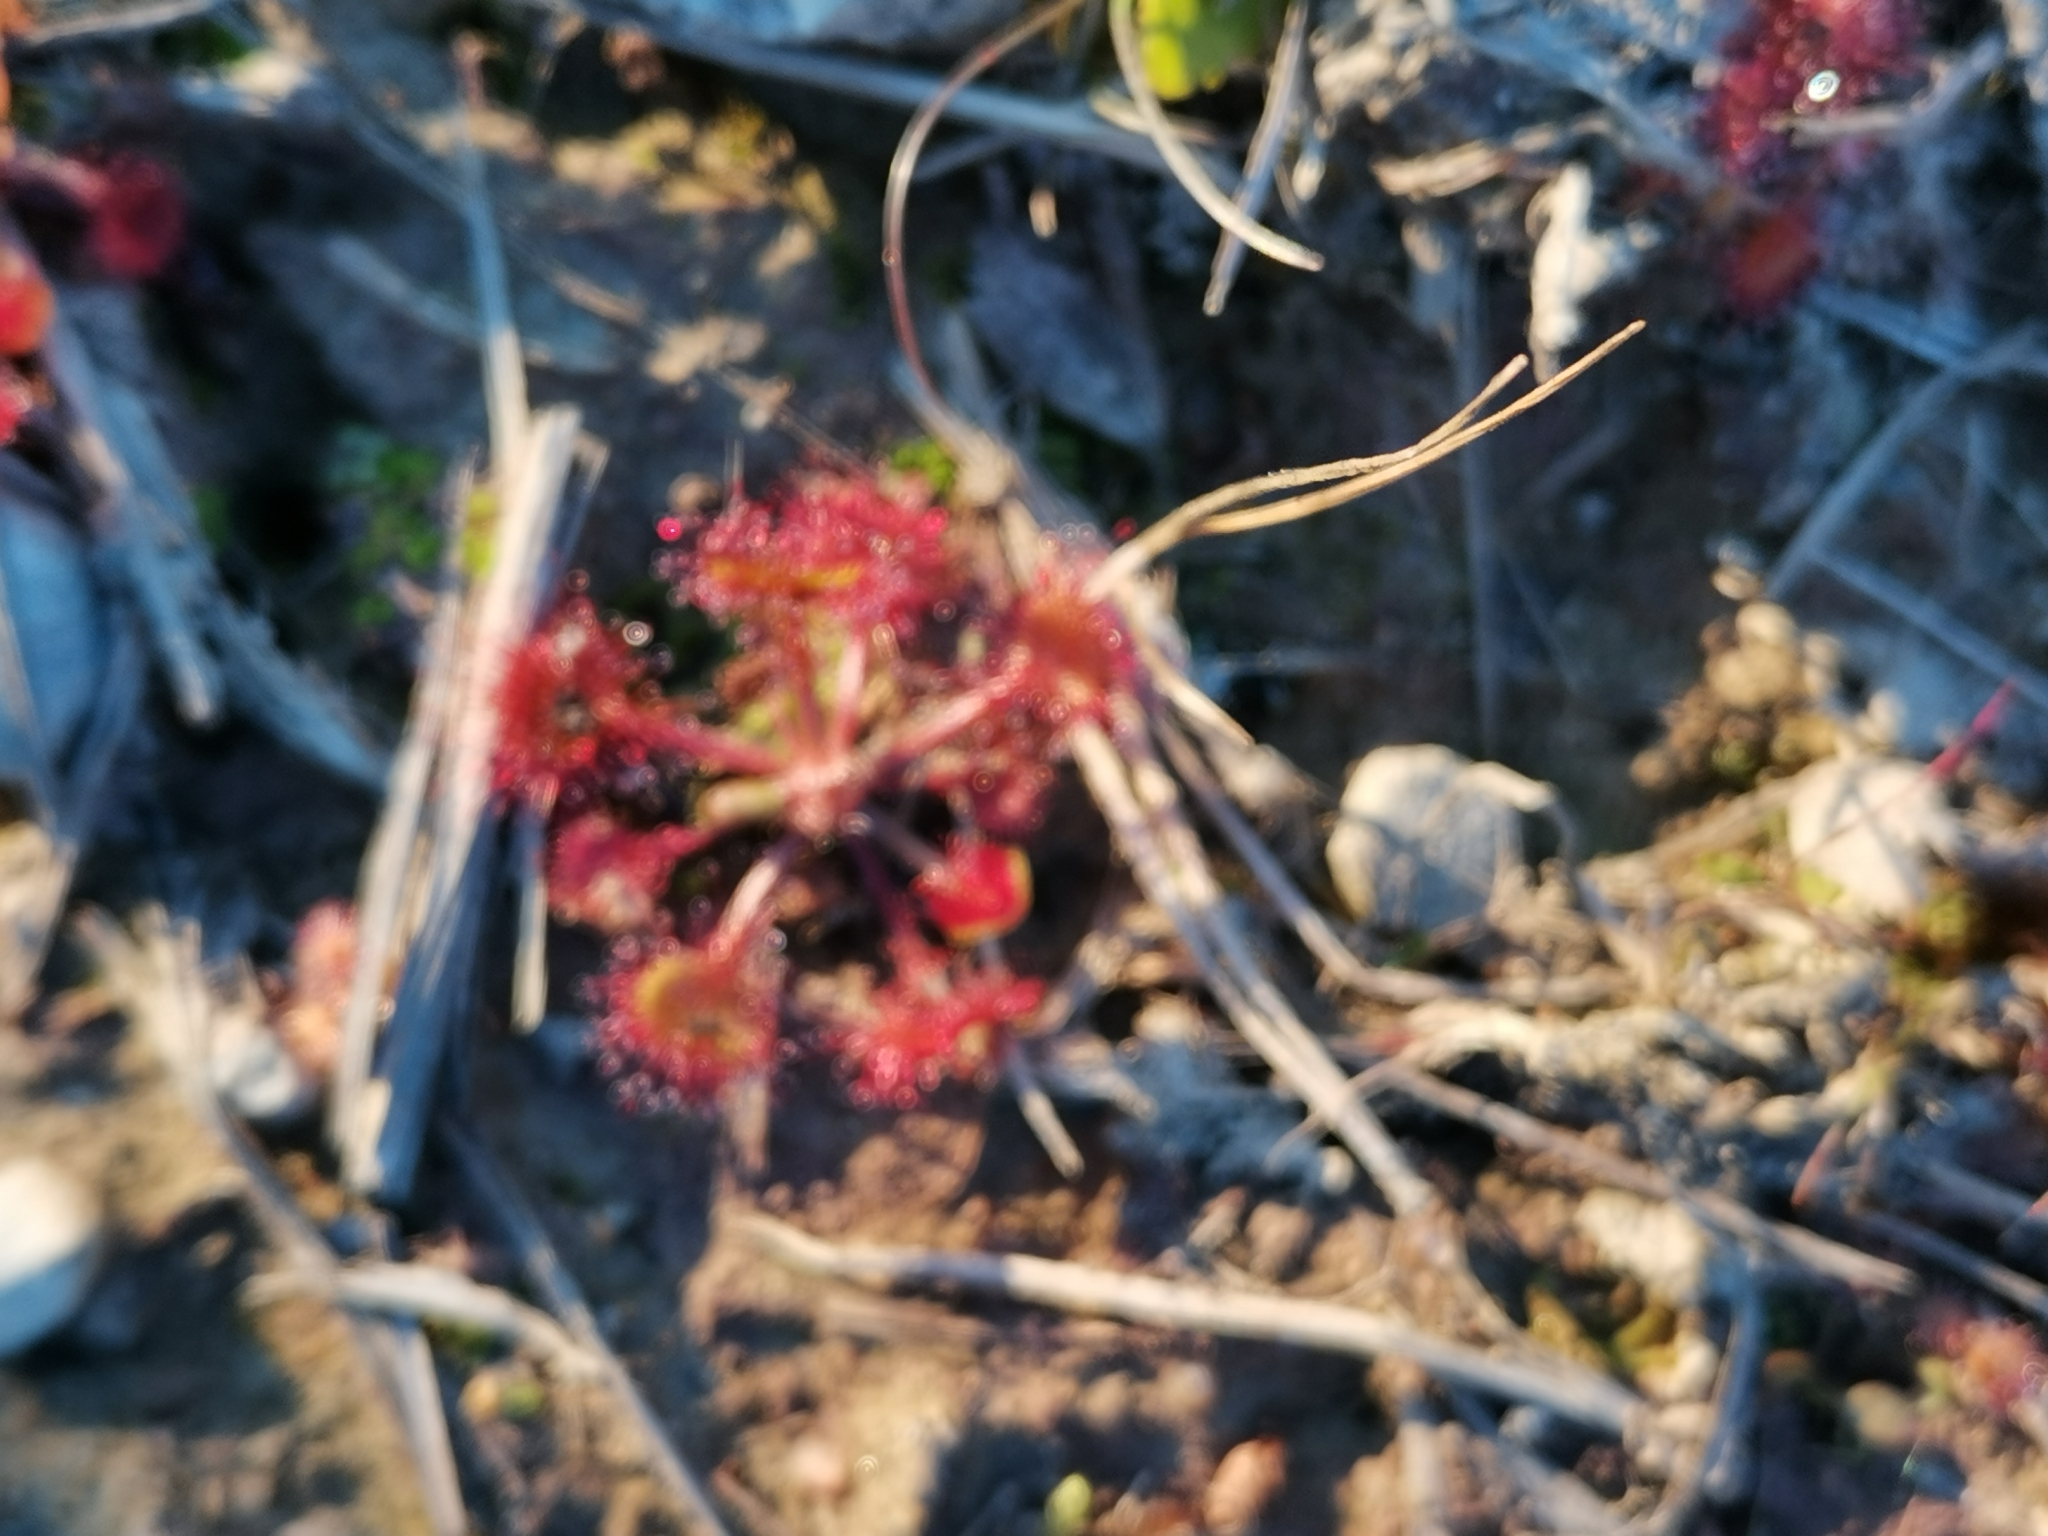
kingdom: Plantae
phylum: Tracheophyta
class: Magnoliopsida
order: Caryophyllales
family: Droseraceae
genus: Drosera
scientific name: Drosera rotundifolia
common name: Round-leaved sundew
